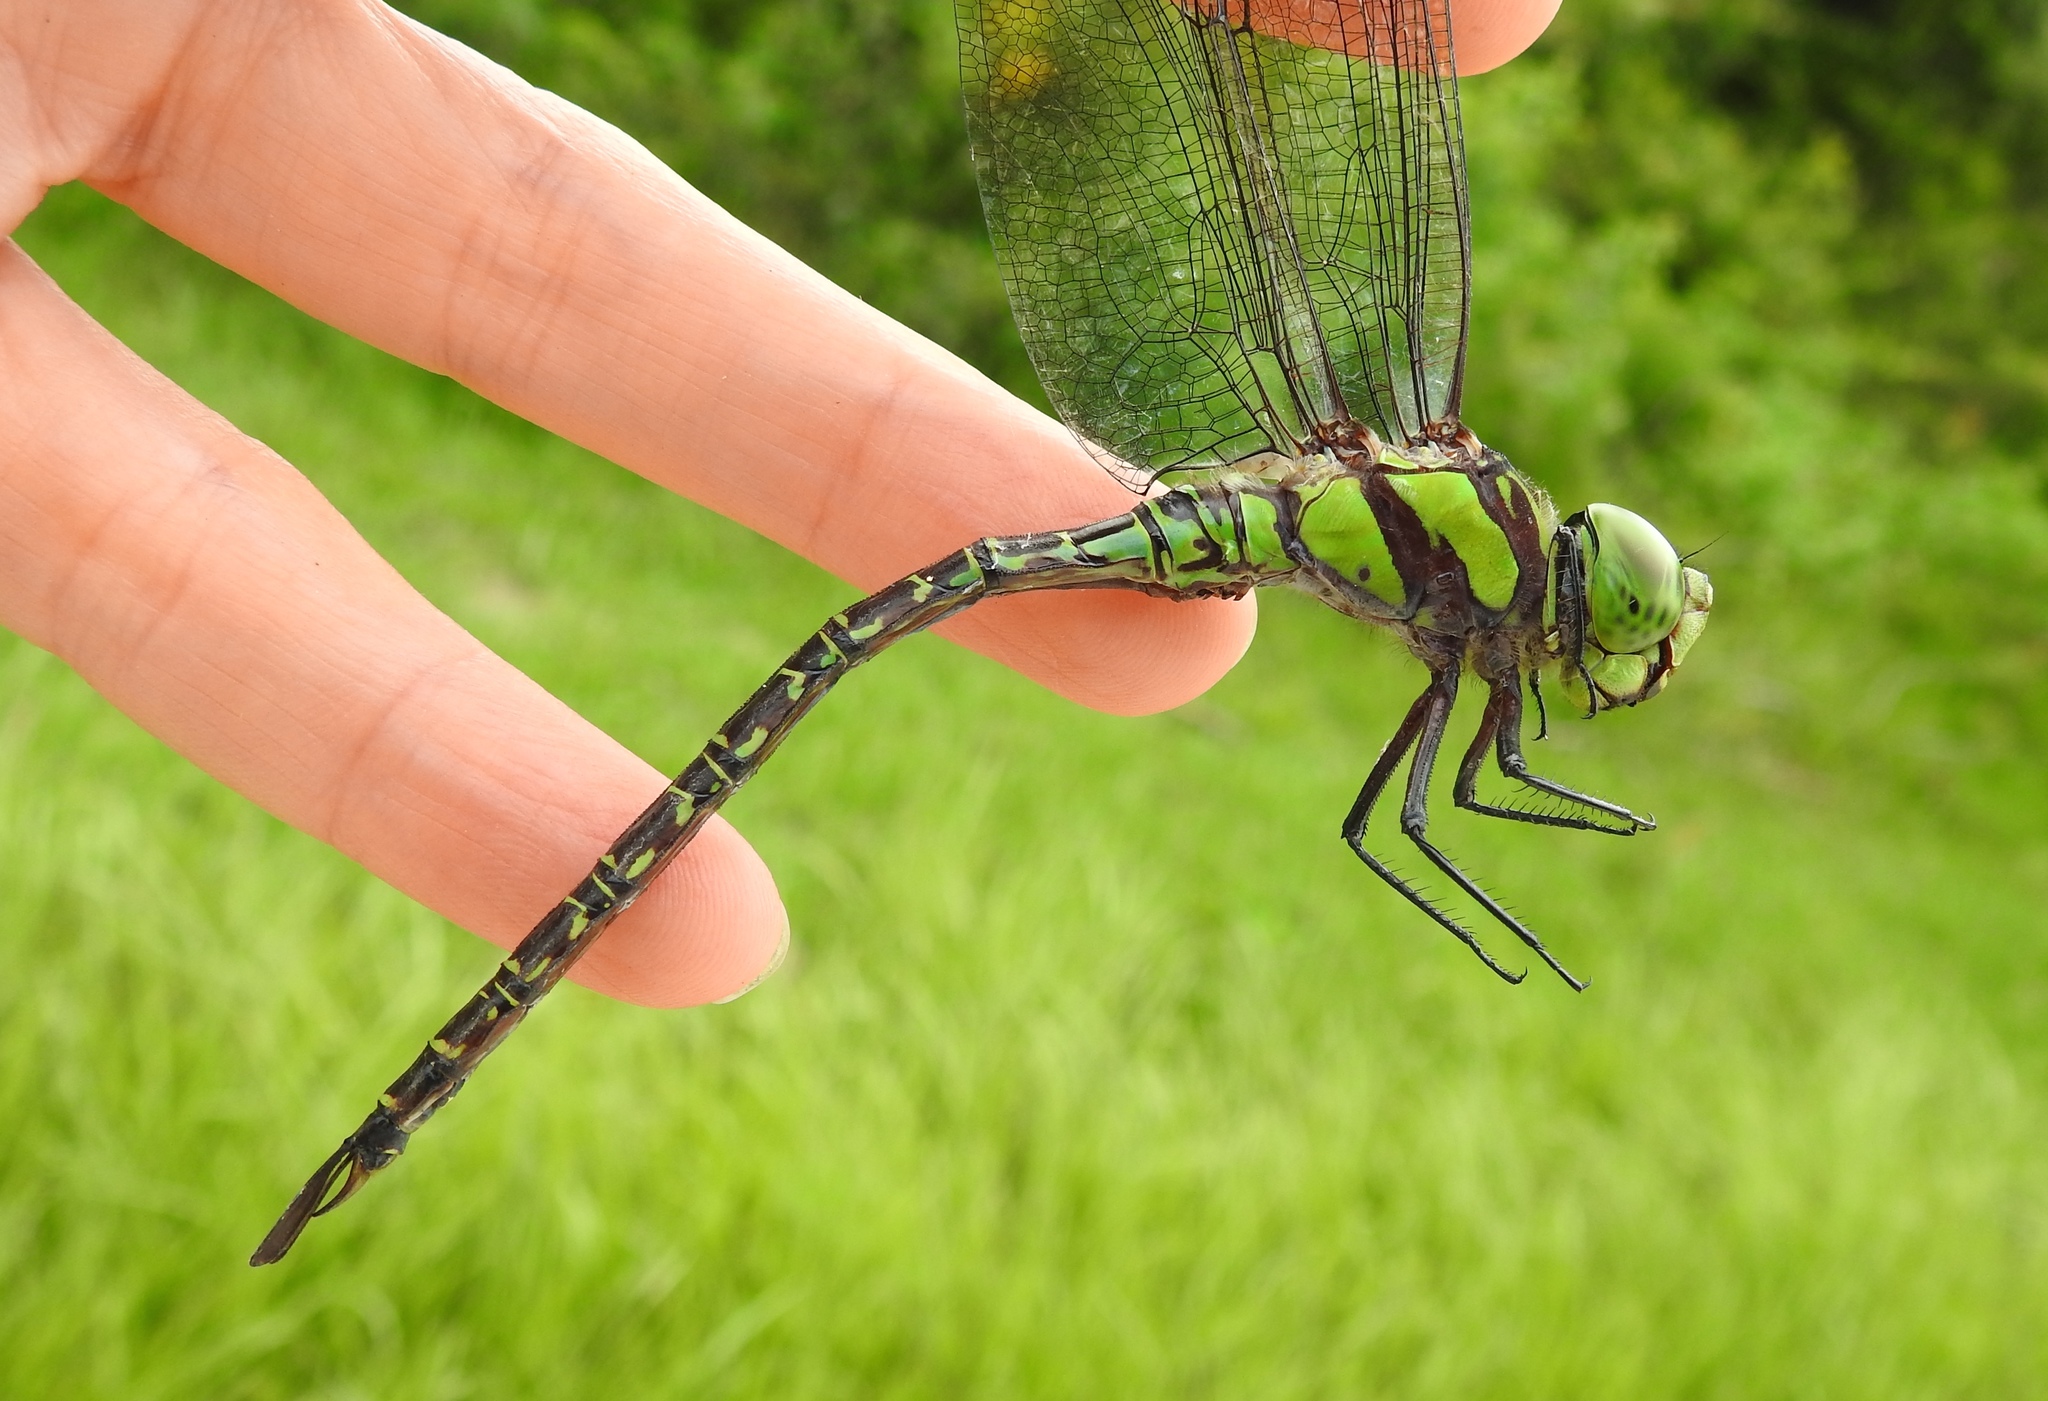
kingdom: Animalia
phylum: Arthropoda
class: Insecta
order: Odonata
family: Aeshnidae
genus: Coryphaeschna
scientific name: Coryphaeschna ingens
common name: Regal darner
